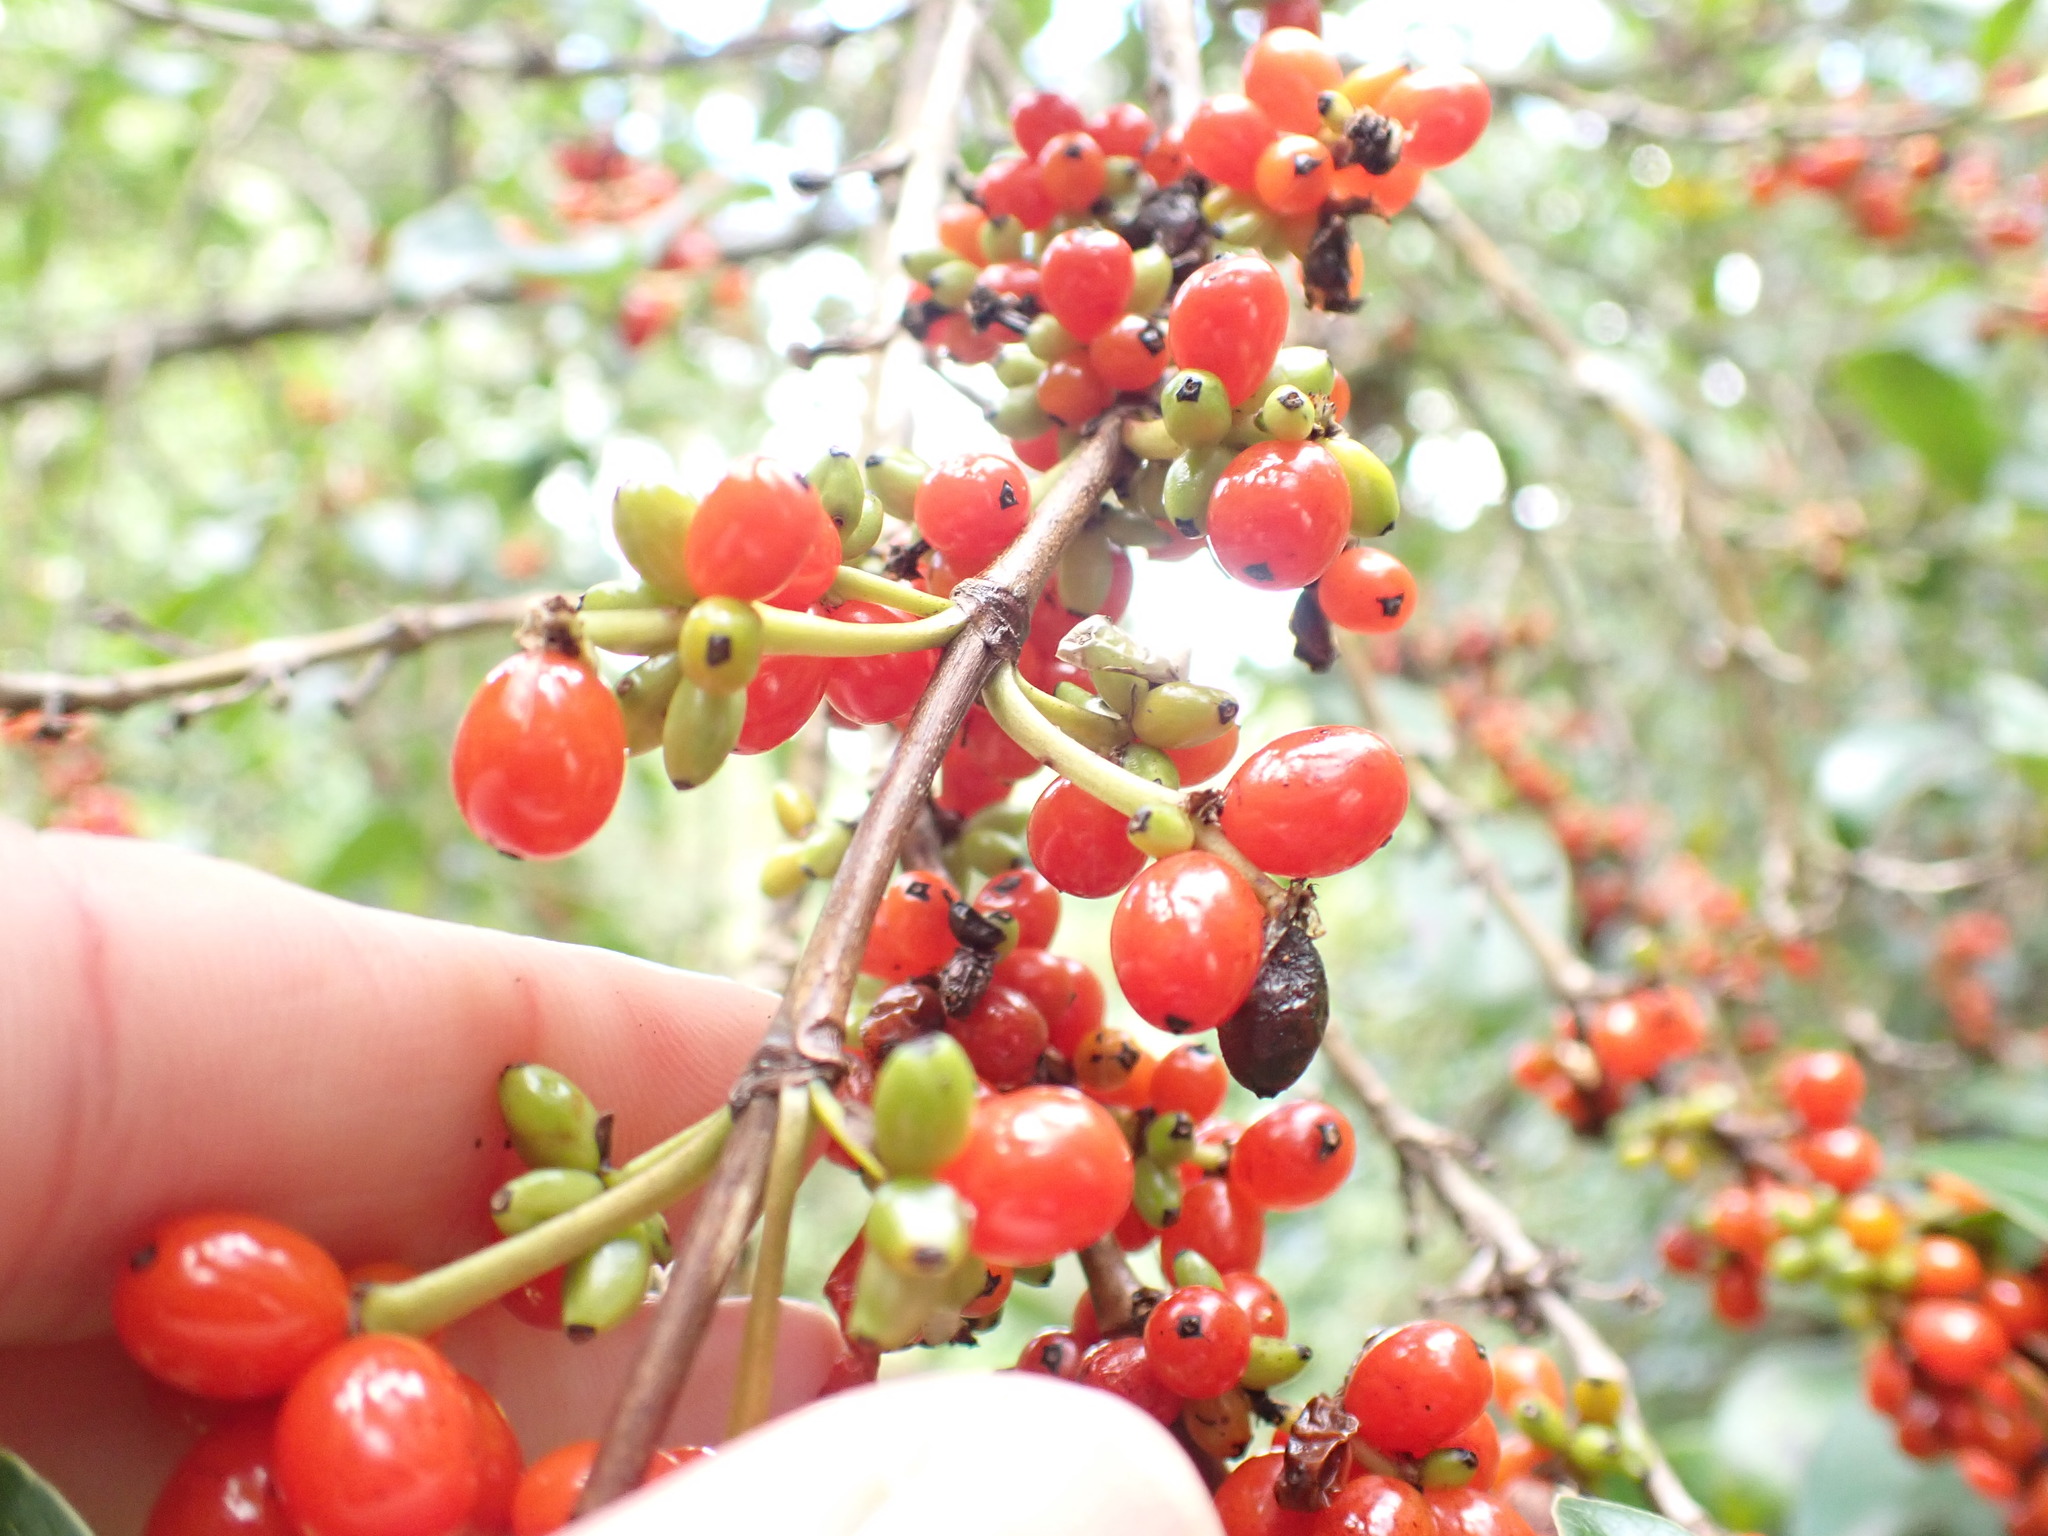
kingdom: Plantae
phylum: Tracheophyta
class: Magnoliopsida
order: Gentianales
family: Rubiaceae
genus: Coprosma
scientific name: Coprosma robusta
